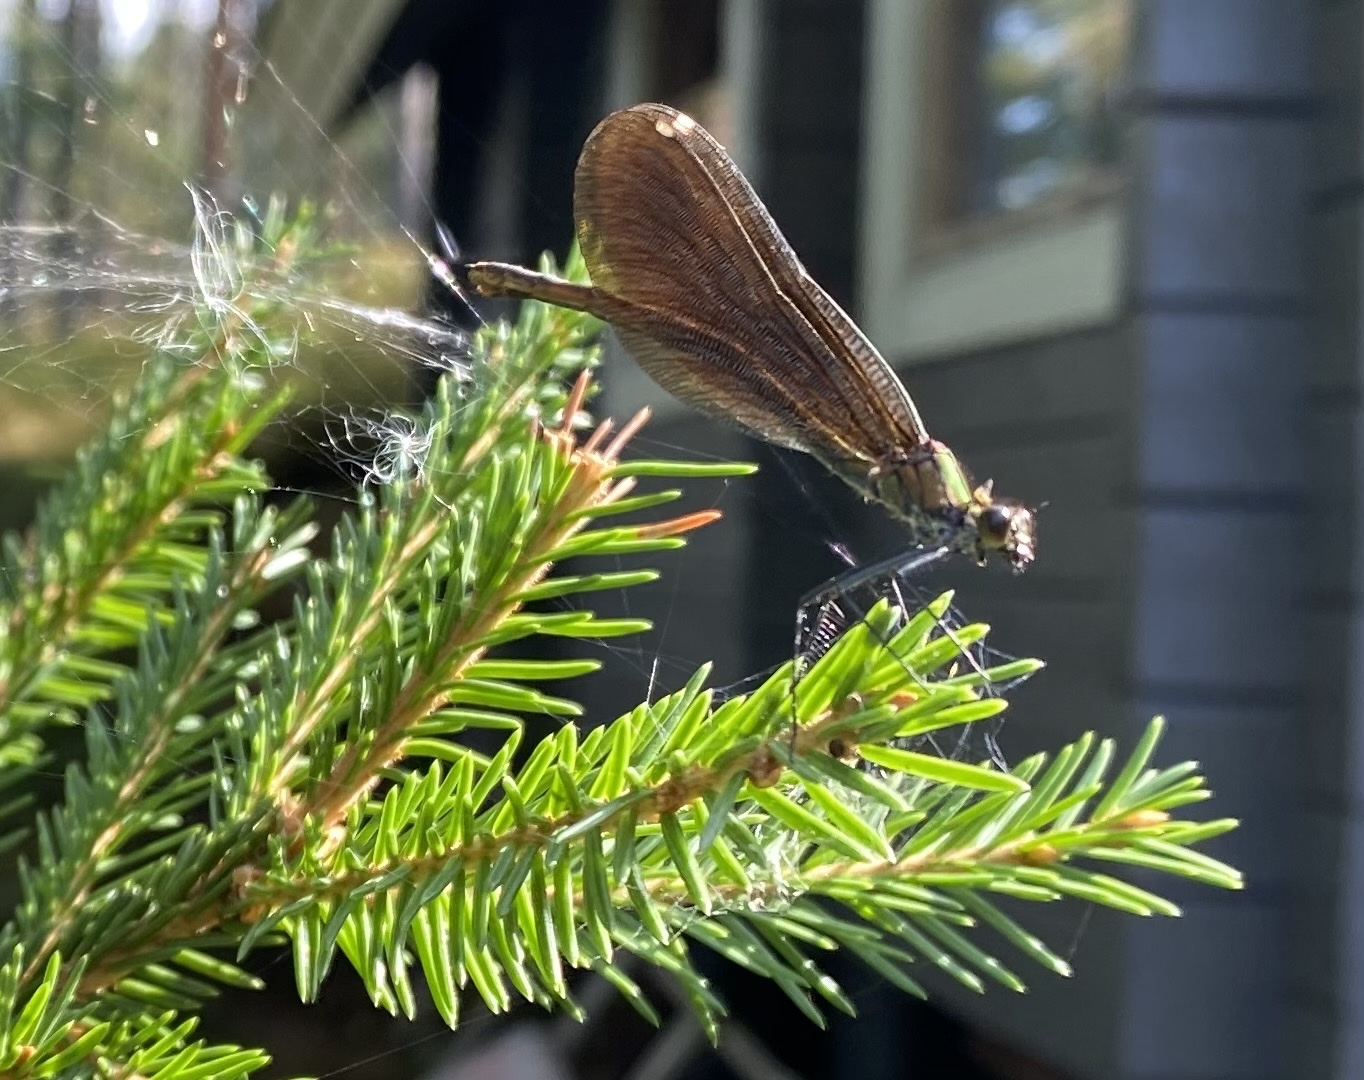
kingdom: Animalia
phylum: Arthropoda
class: Insecta
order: Odonata
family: Calopterygidae
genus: Calopteryx
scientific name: Calopteryx virgo
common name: Beautiful demoiselle
